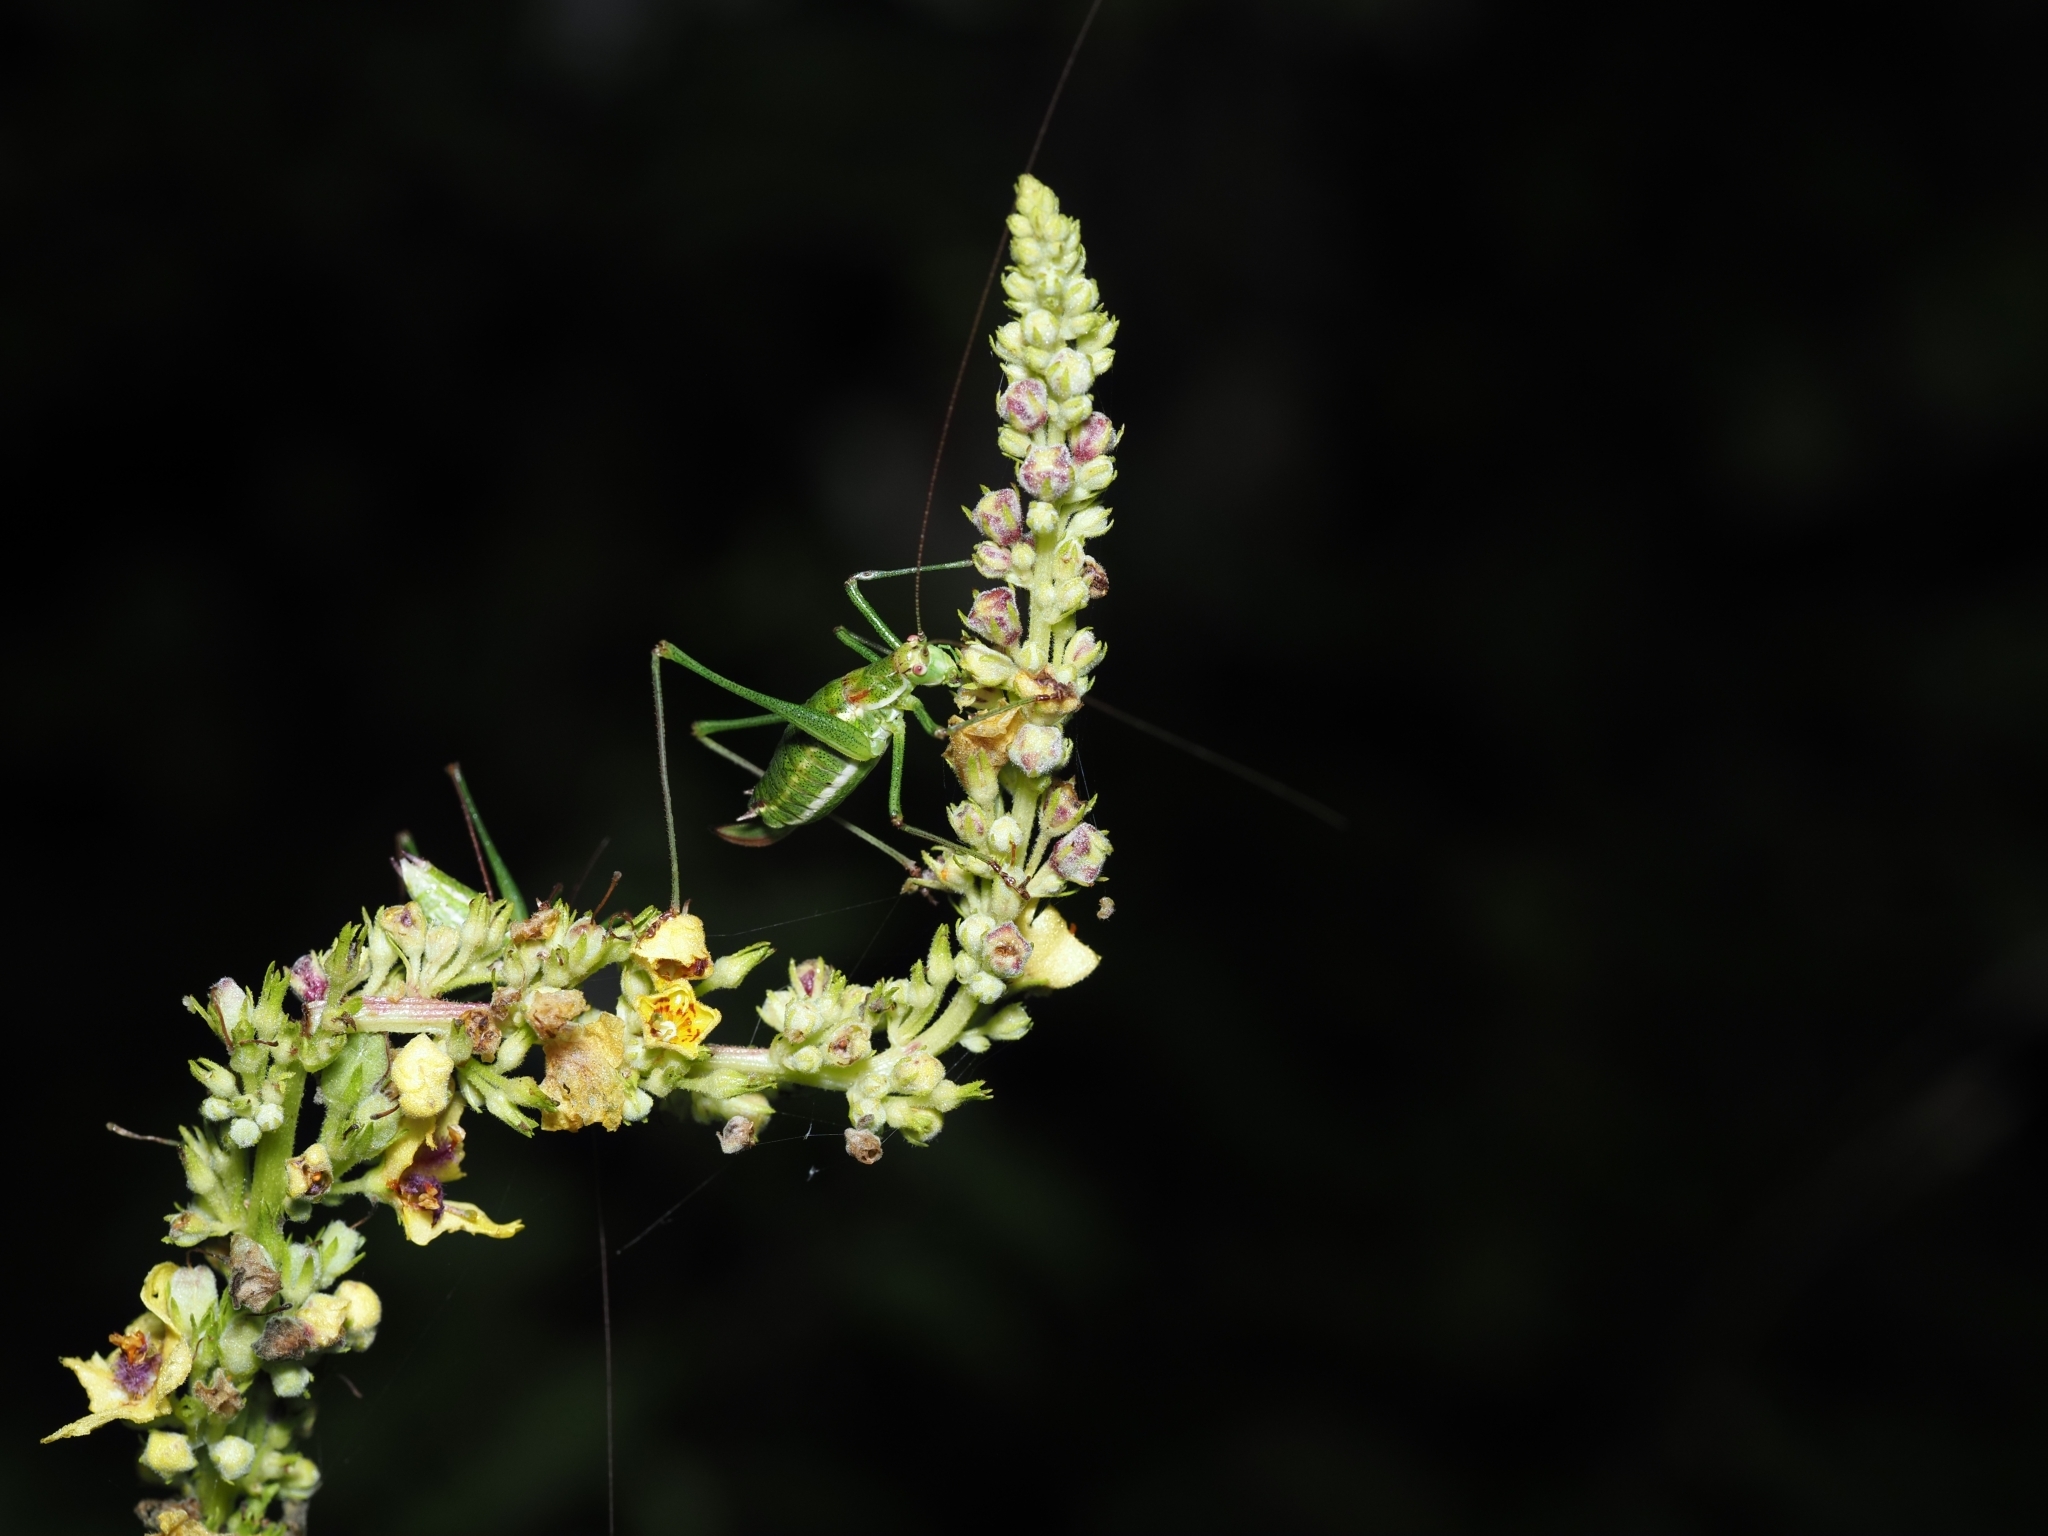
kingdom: Animalia
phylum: Arthropoda
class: Insecta
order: Orthoptera
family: Tettigoniidae
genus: Leptophyes
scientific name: Leptophyes albovittata
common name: Striped bush-cricket
